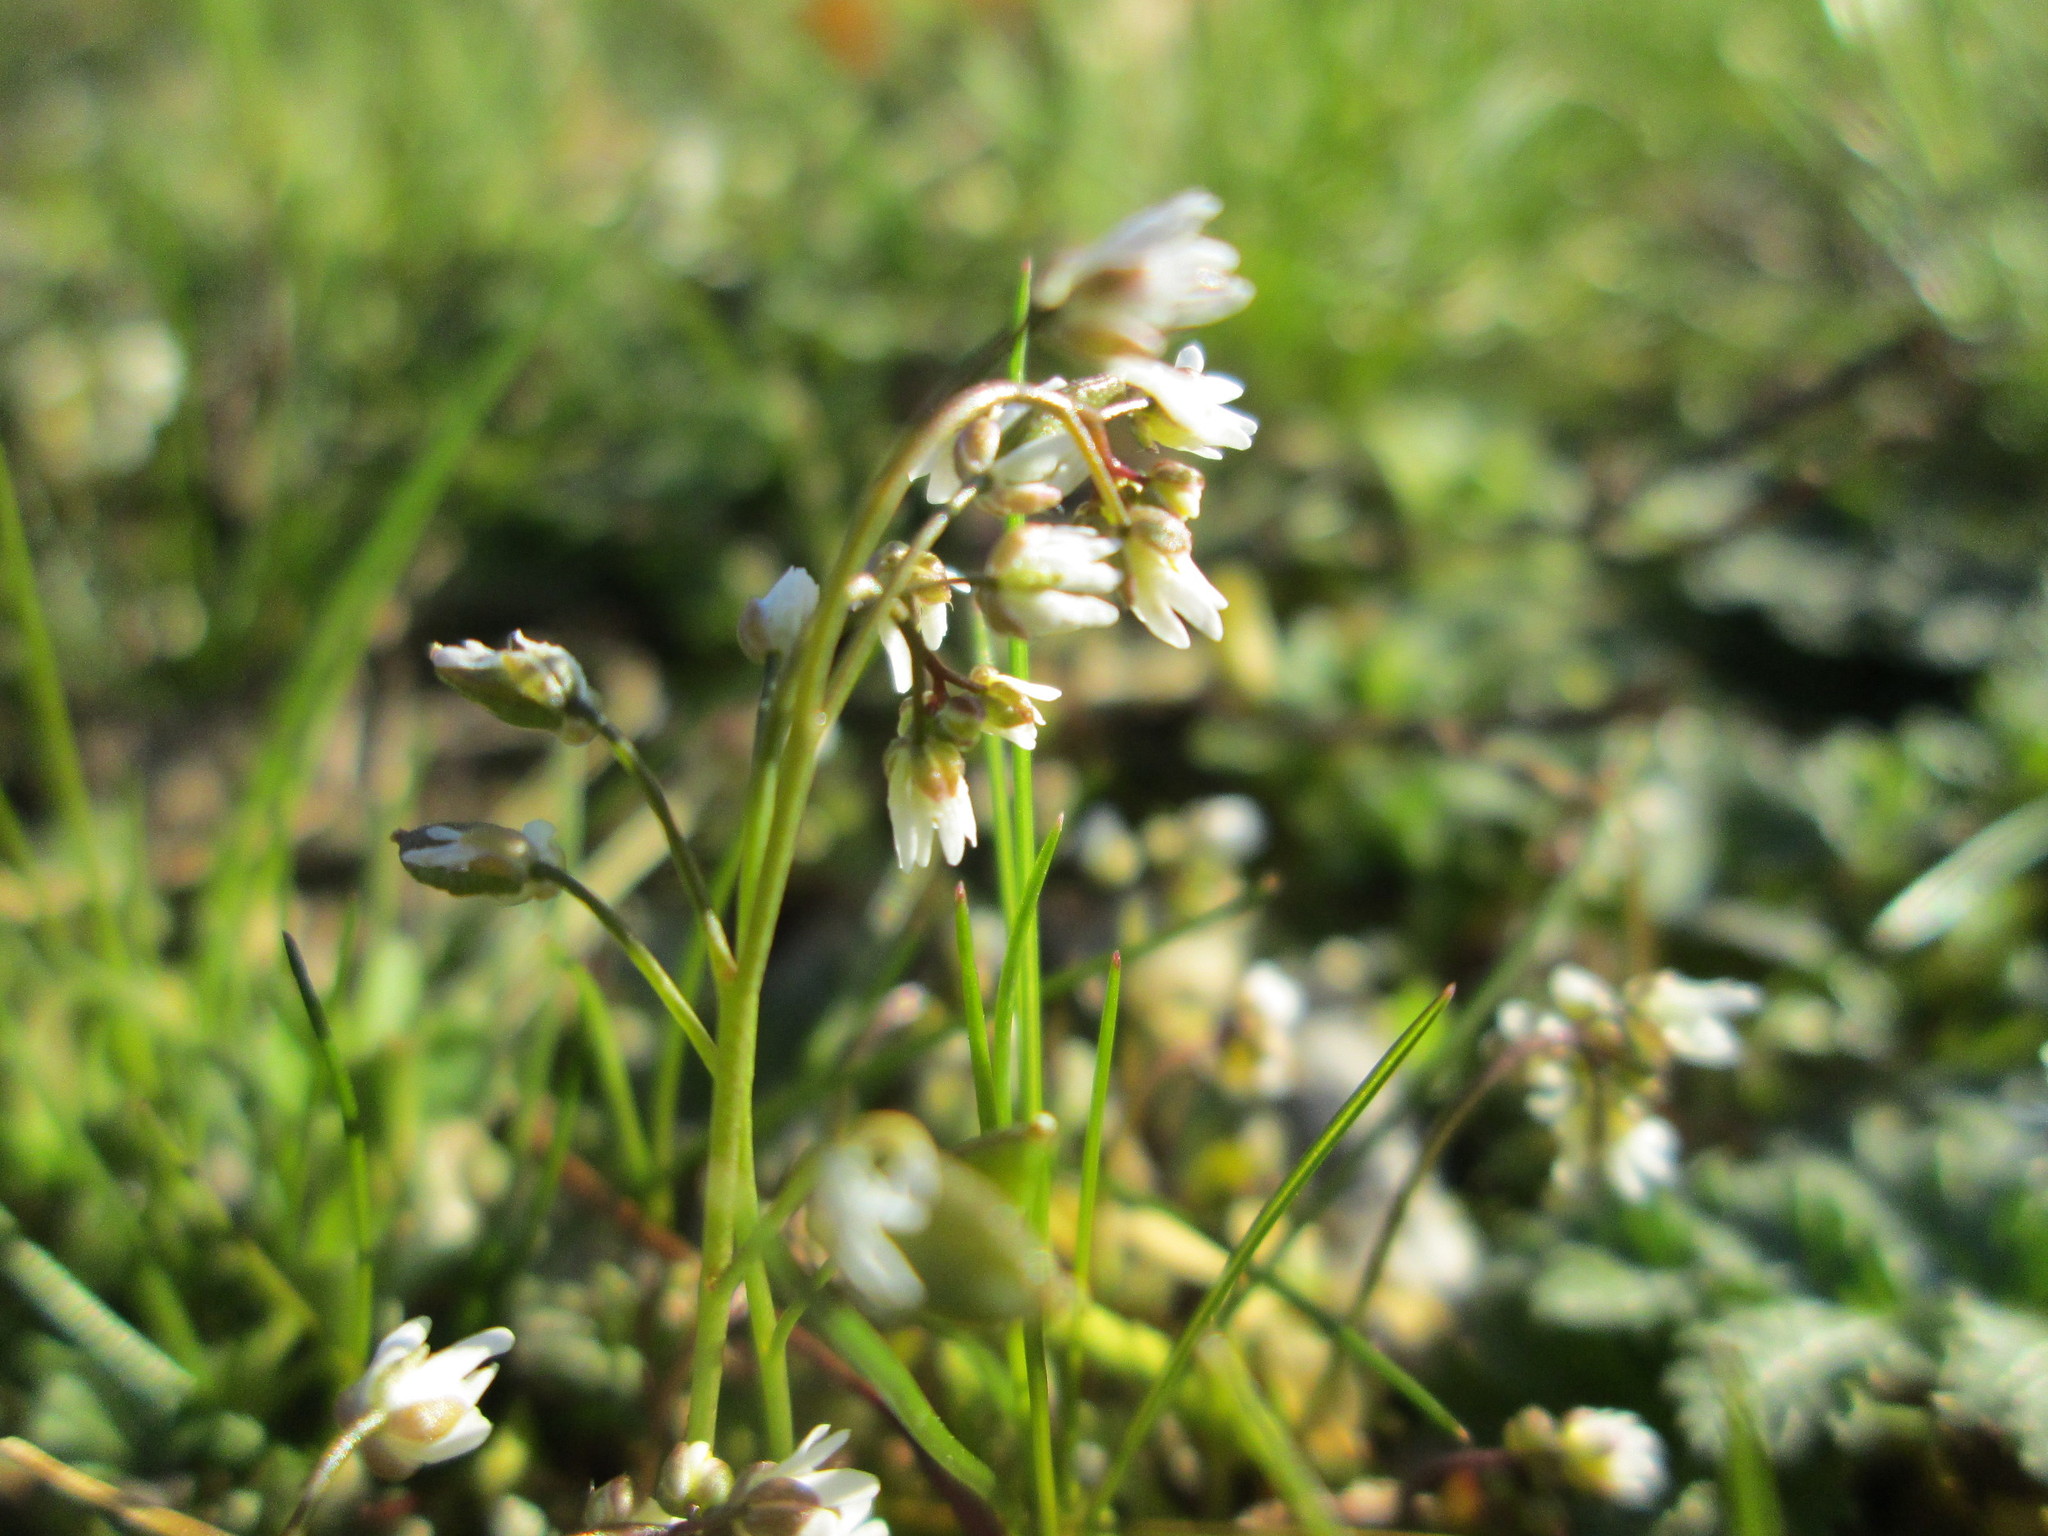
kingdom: Plantae
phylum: Tracheophyta
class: Magnoliopsida
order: Brassicales
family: Brassicaceae
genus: Draba
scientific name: Draba verna
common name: Spring draba
